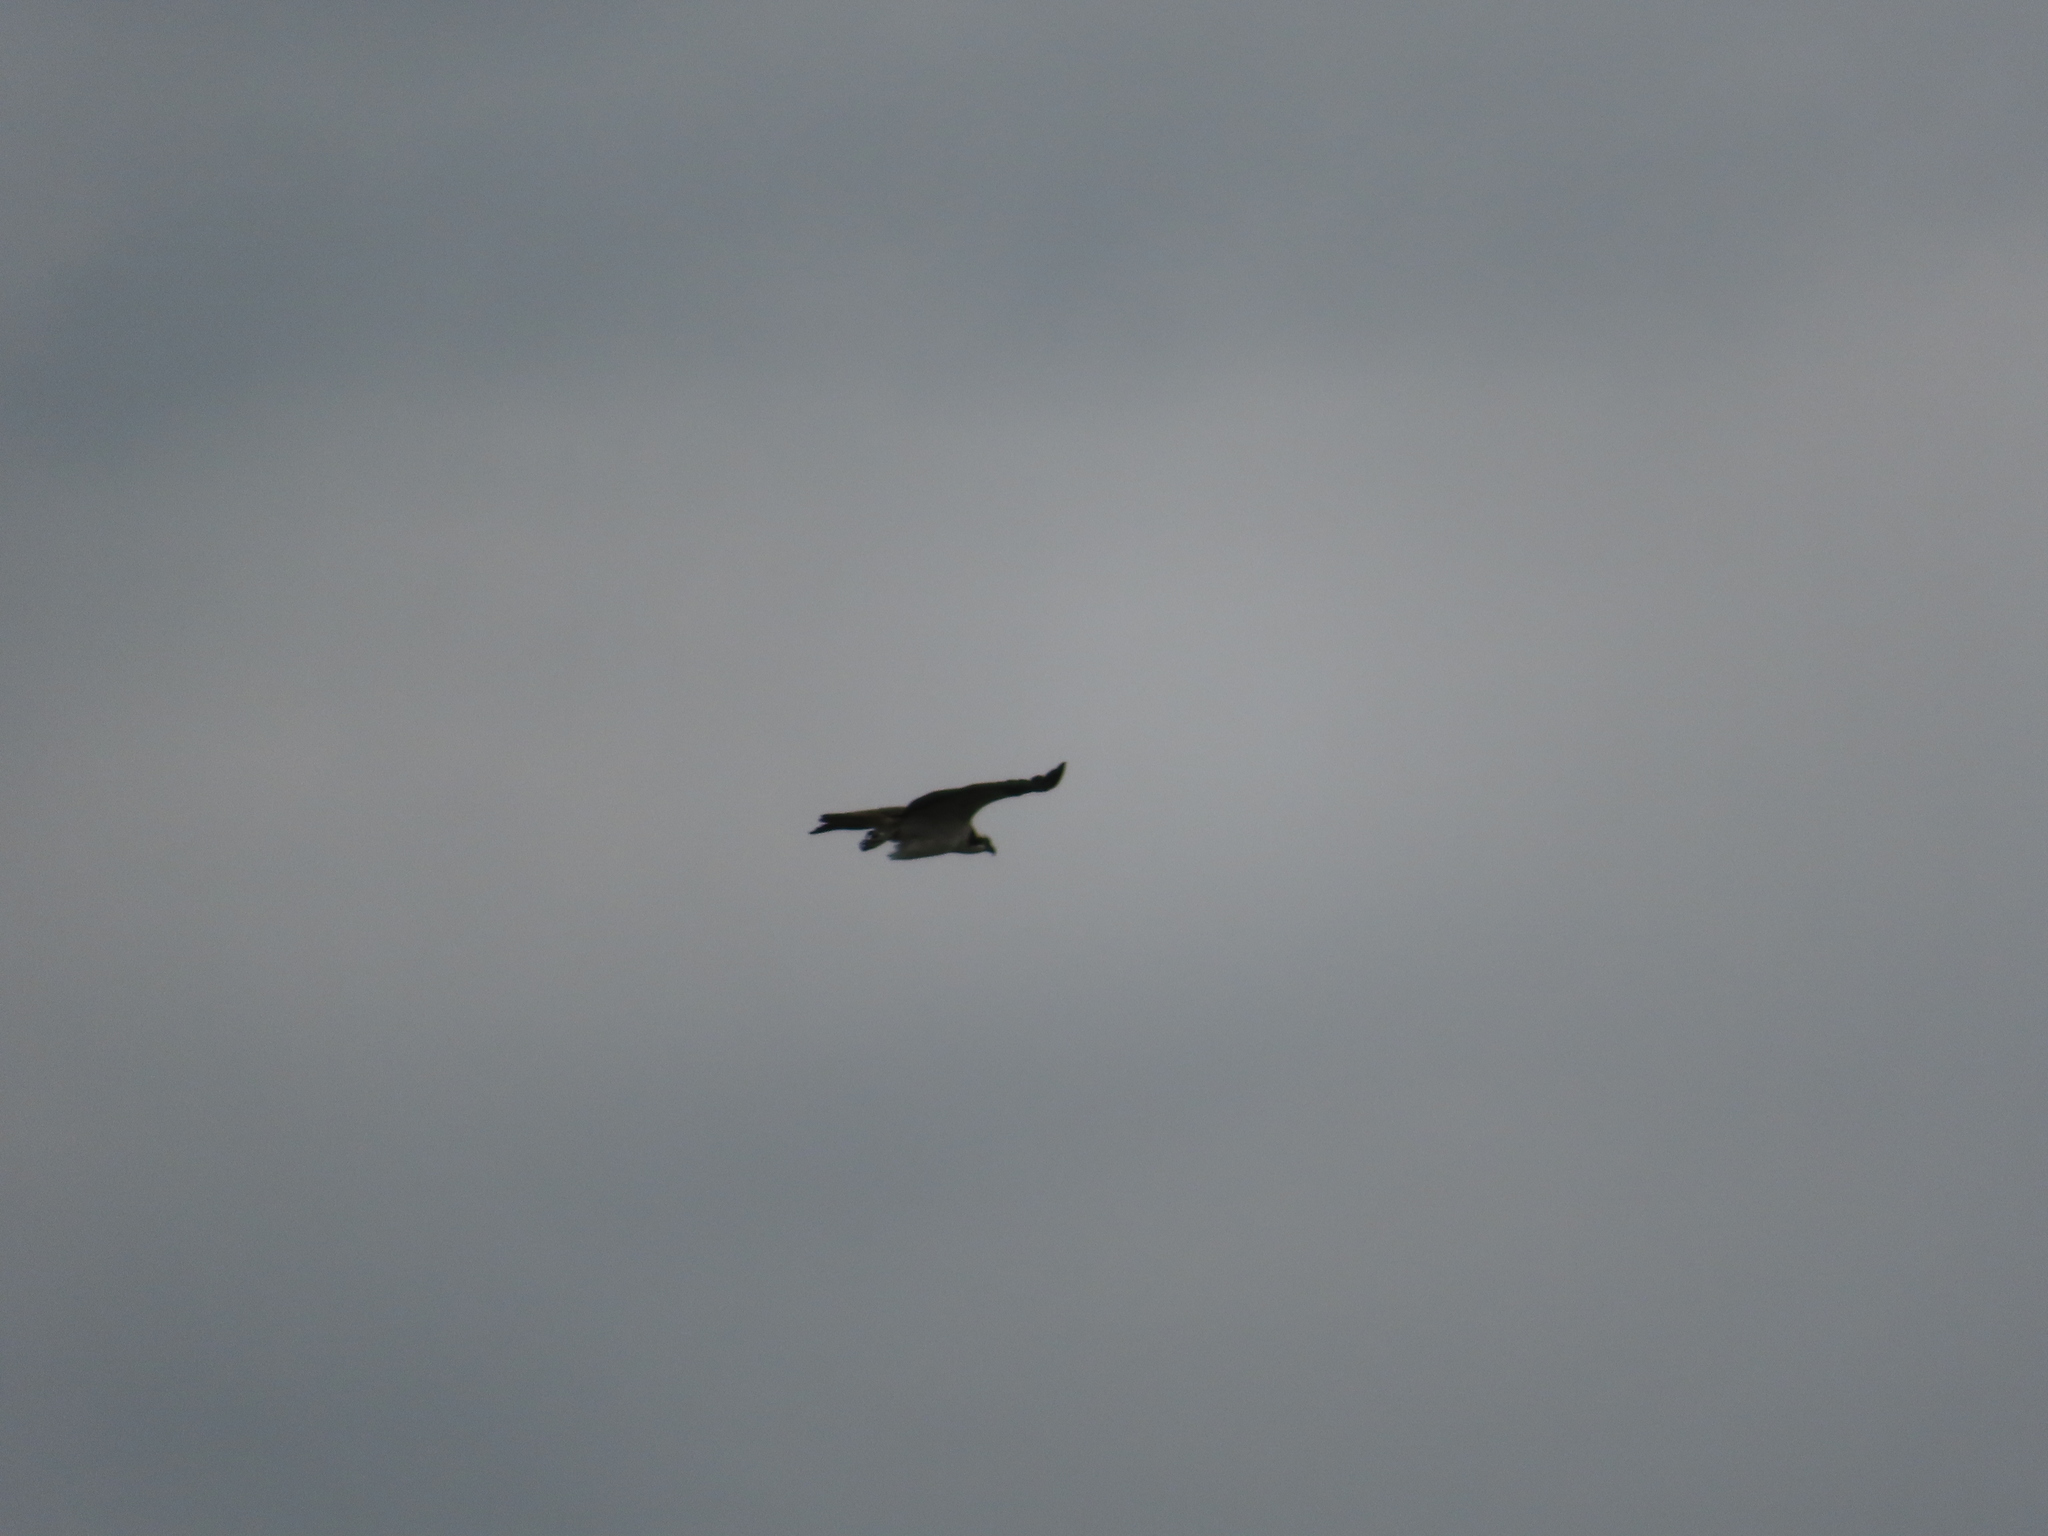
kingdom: Animalia
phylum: Chordata
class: Aves
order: Accipitriformes
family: Pandionidae
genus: Pandion
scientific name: Pandion haliaetus
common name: Osprey
